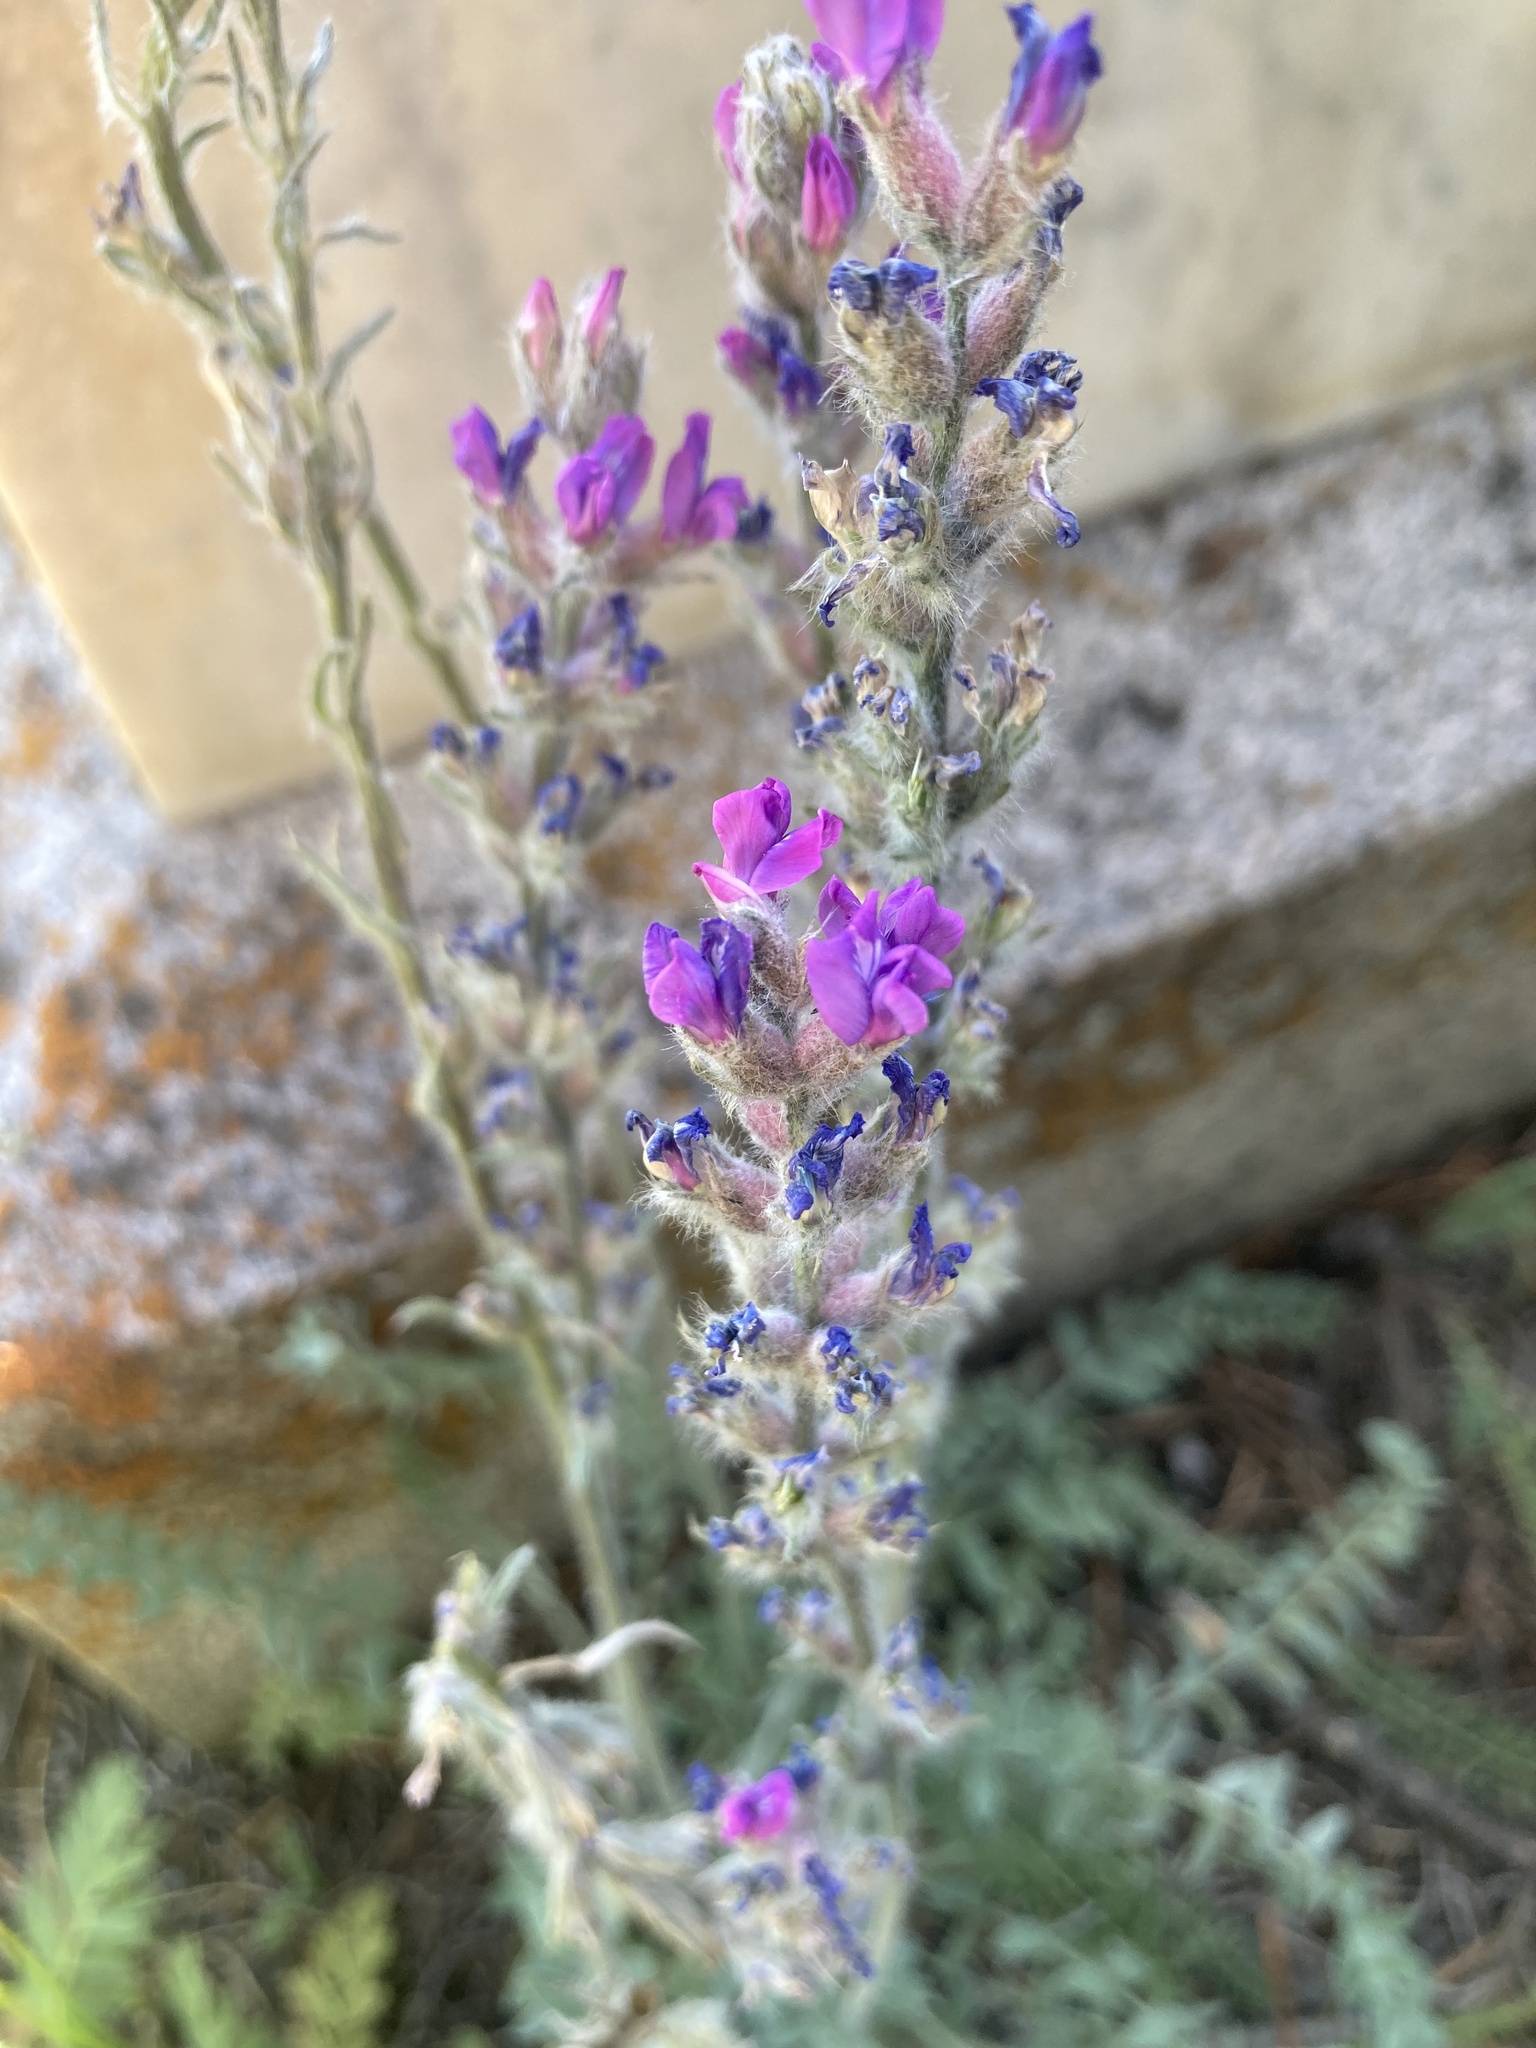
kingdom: Plantae
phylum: Tracheophyta
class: Magnoliopsida
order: Fabales
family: Fabaceae
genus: Oxytropis
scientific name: Oxytropis splendens
